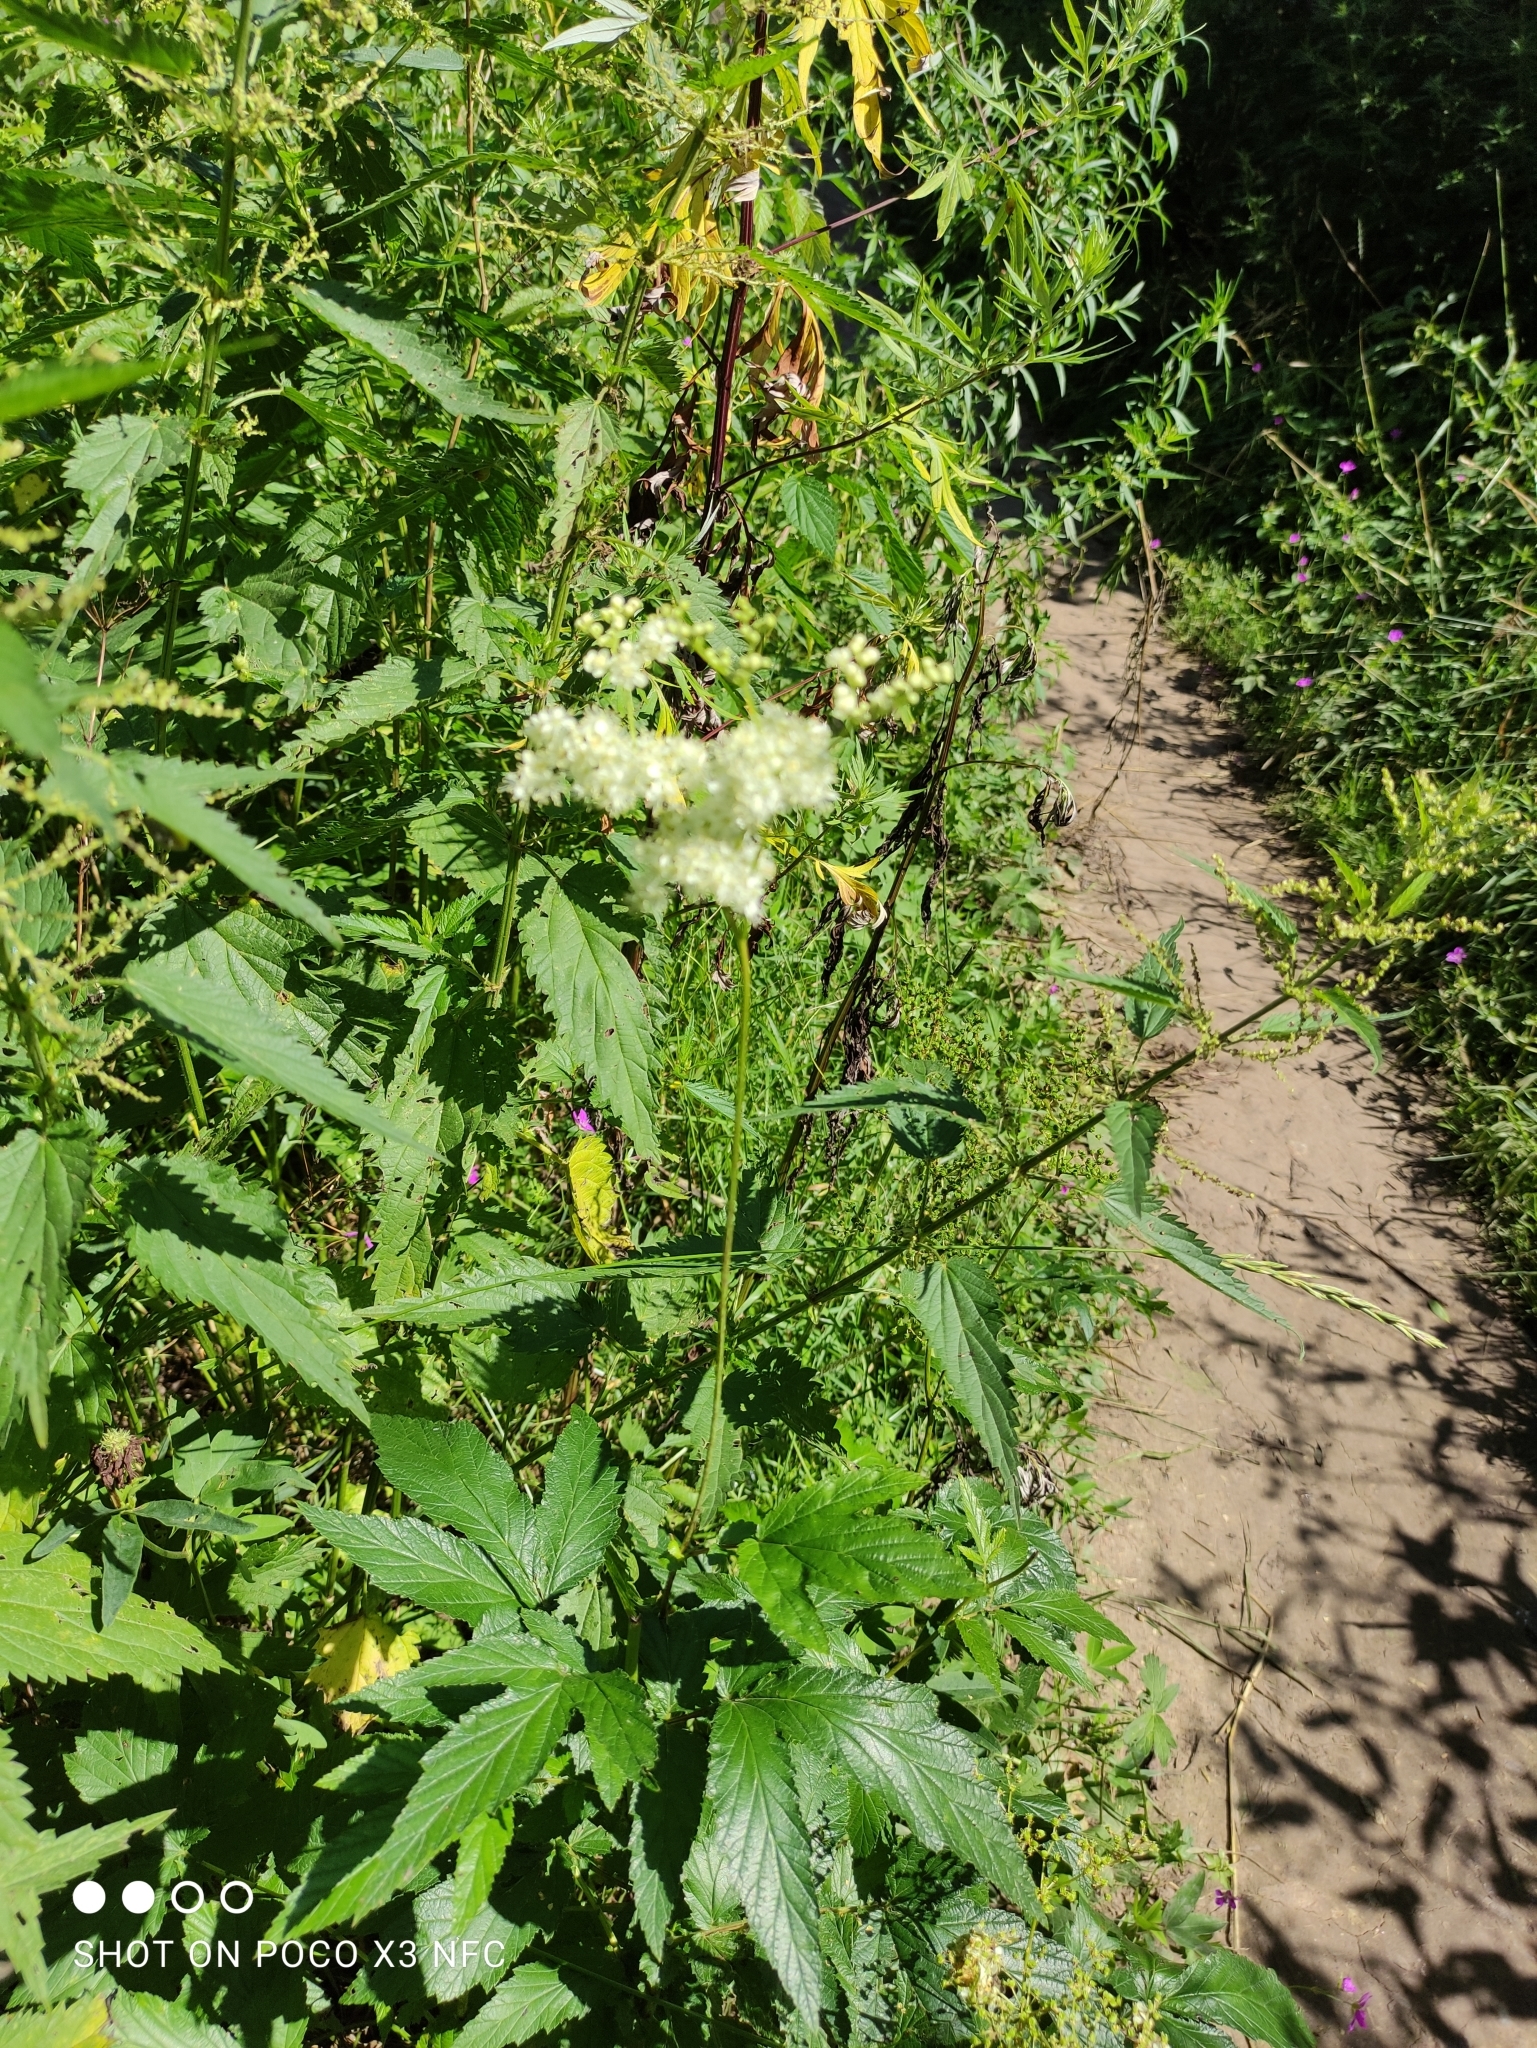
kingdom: Plantae
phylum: Tracheophyta
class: Magnoliopsida
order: Rosales
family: Rosaceae
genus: Filipendula
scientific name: Filipendula ulmaria
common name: Meadowsweet
